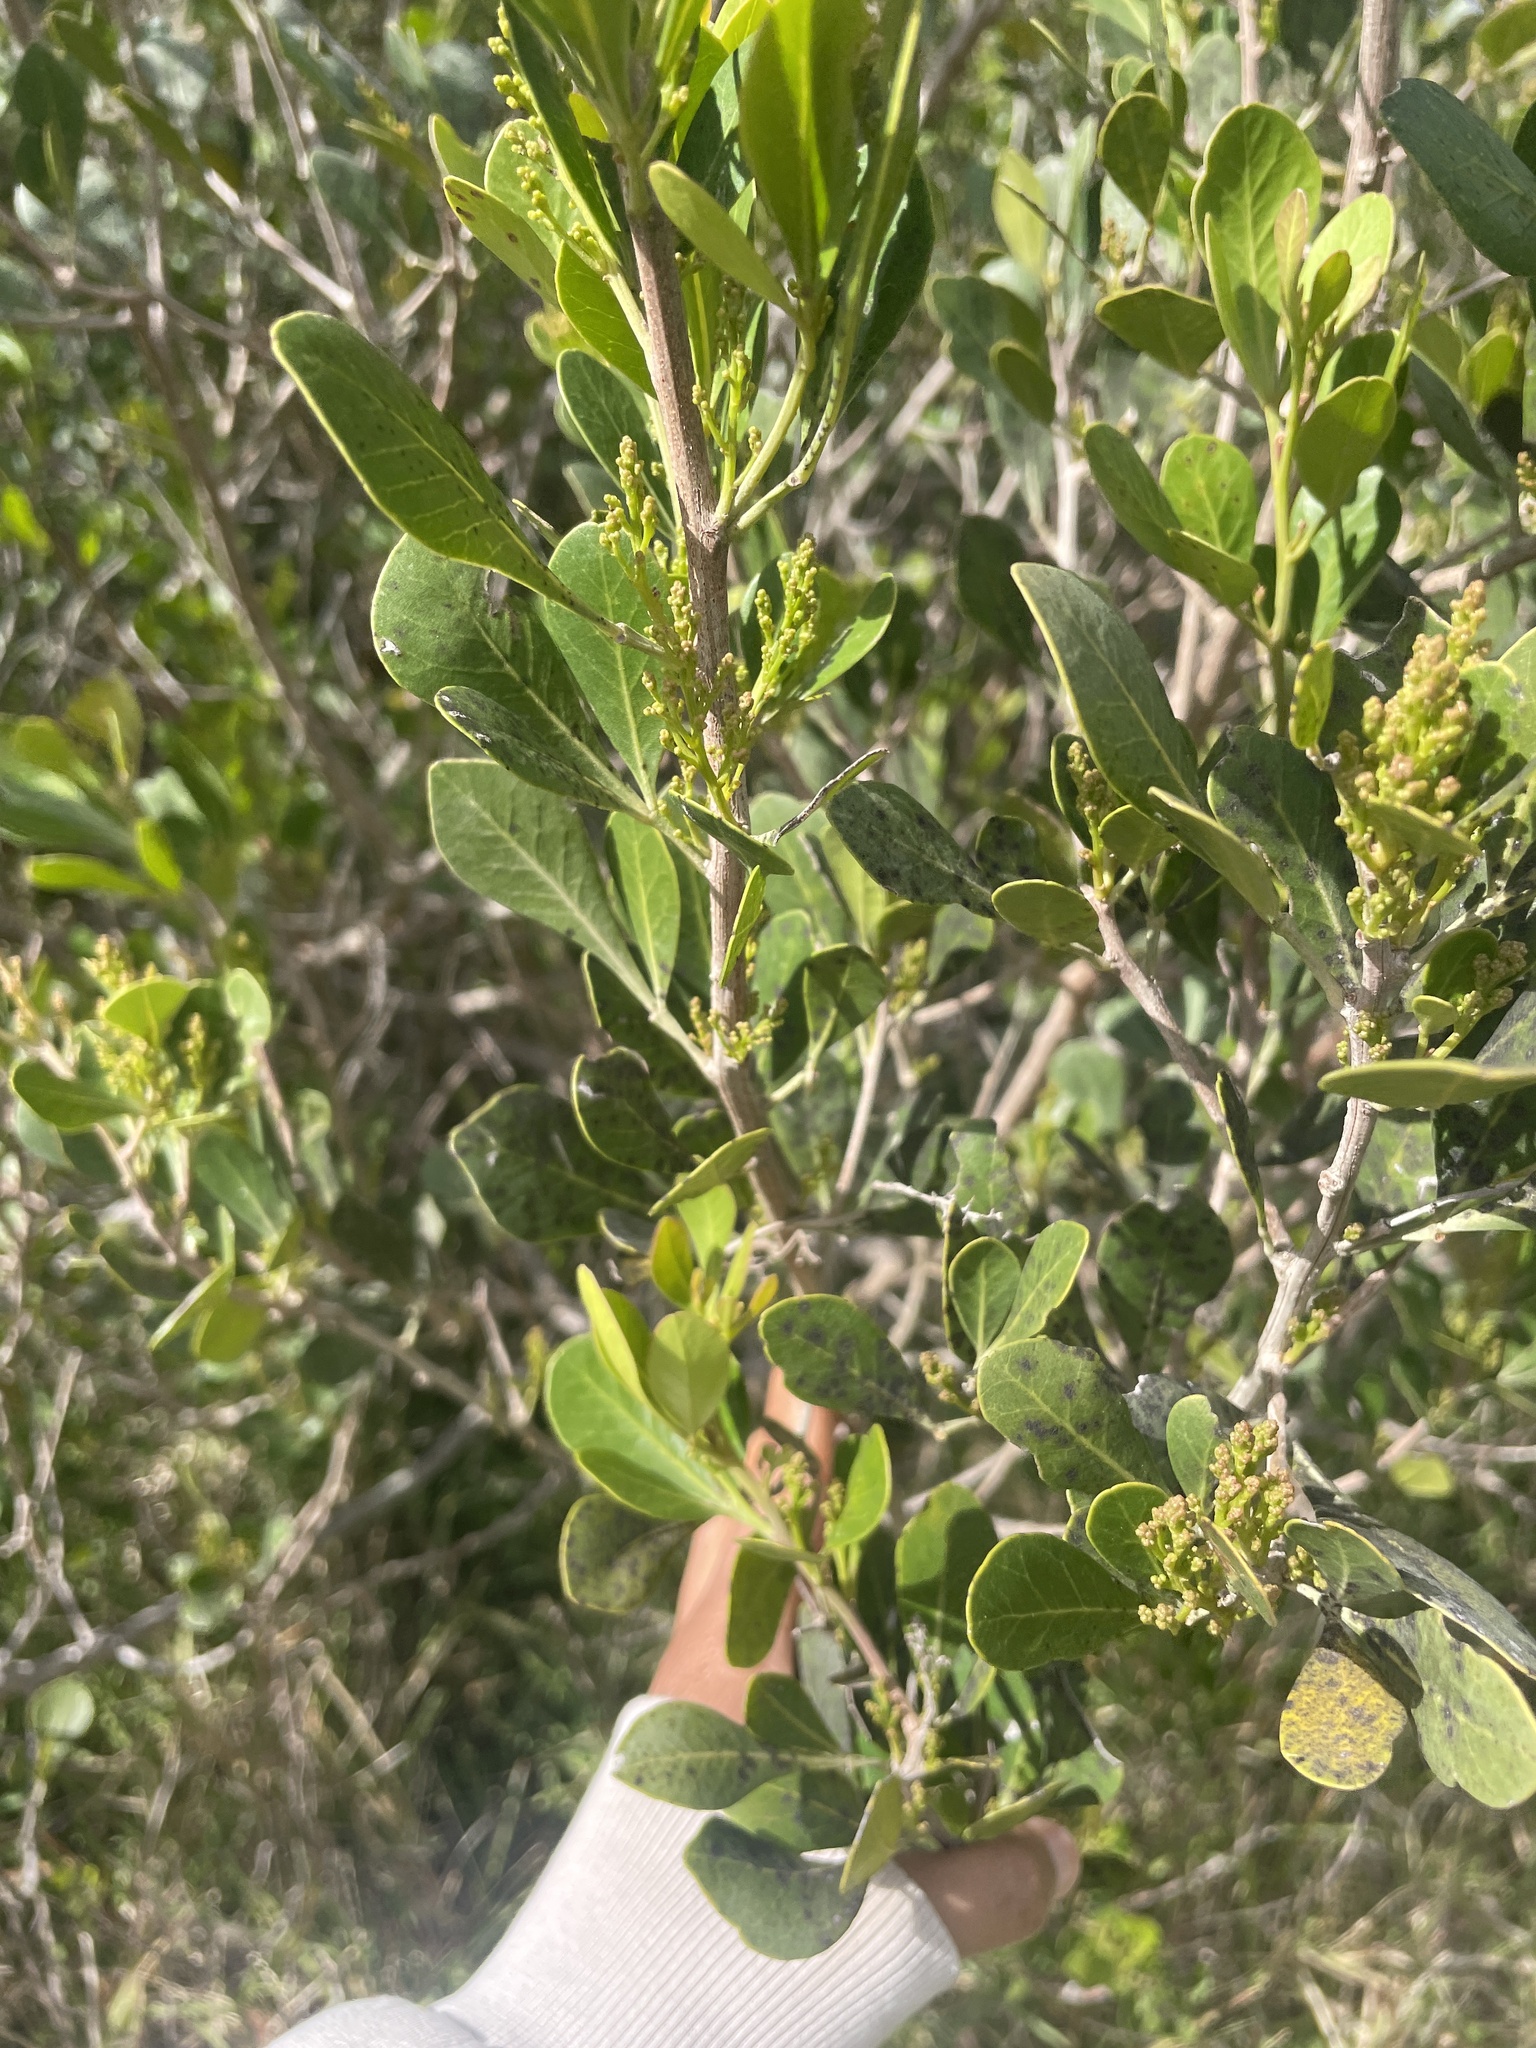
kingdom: Plantae
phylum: Tracheophyta
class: Magnoliopsida
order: Sapindales
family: Anacardiaceae
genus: Searsia
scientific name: Searsia lucida
